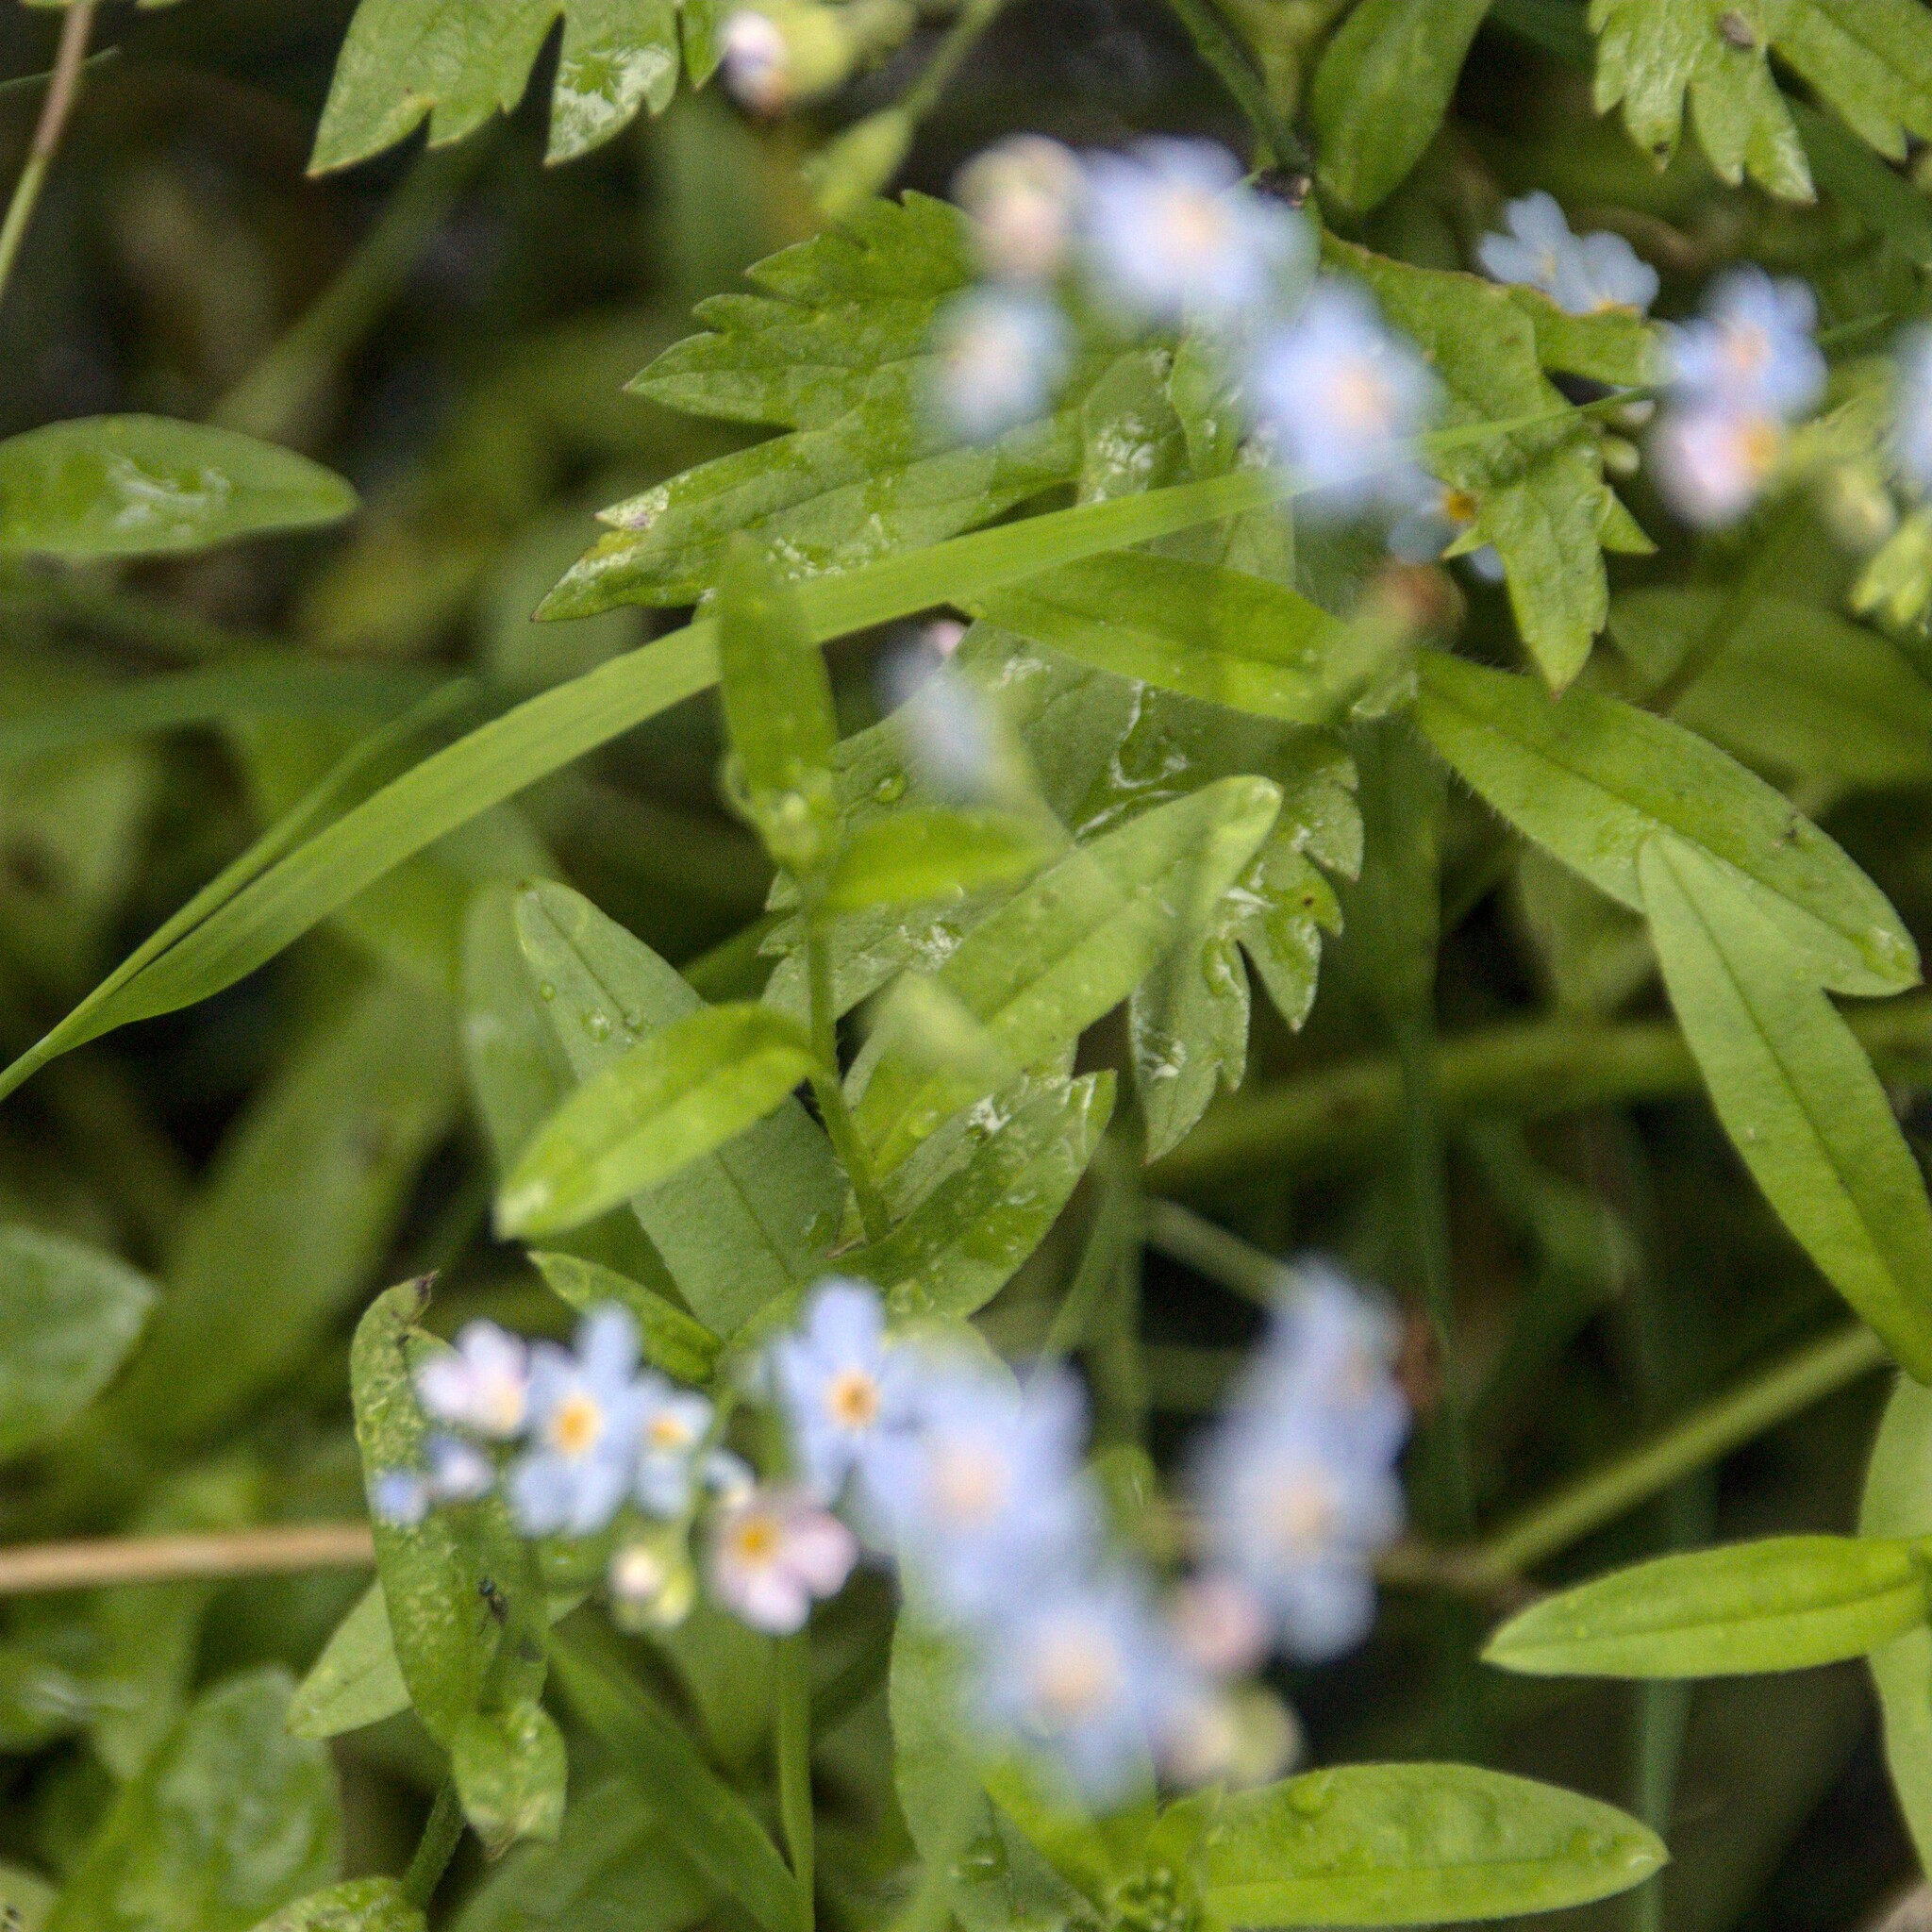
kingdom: Plantae
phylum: Tracheophyta
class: Magnoliopsida
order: Boraginales
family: Boraginaceae
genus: Myosotis
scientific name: Myosotis scorpioides
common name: Water forget-me-not
